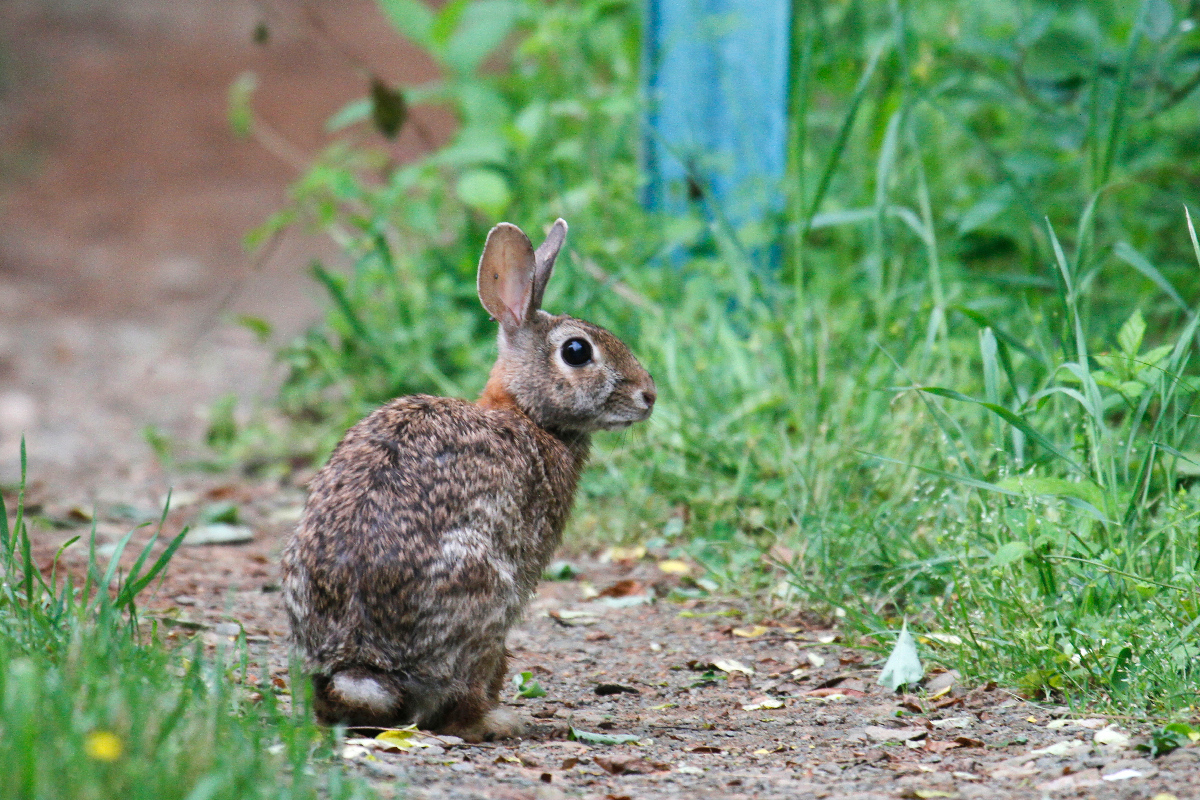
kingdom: Animalia
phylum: Chordata
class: Mammalia
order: Lagomorpha
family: Leporidae
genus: Sylvilagus
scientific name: Sylvilagus floridanus
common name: Eastern cottontail
